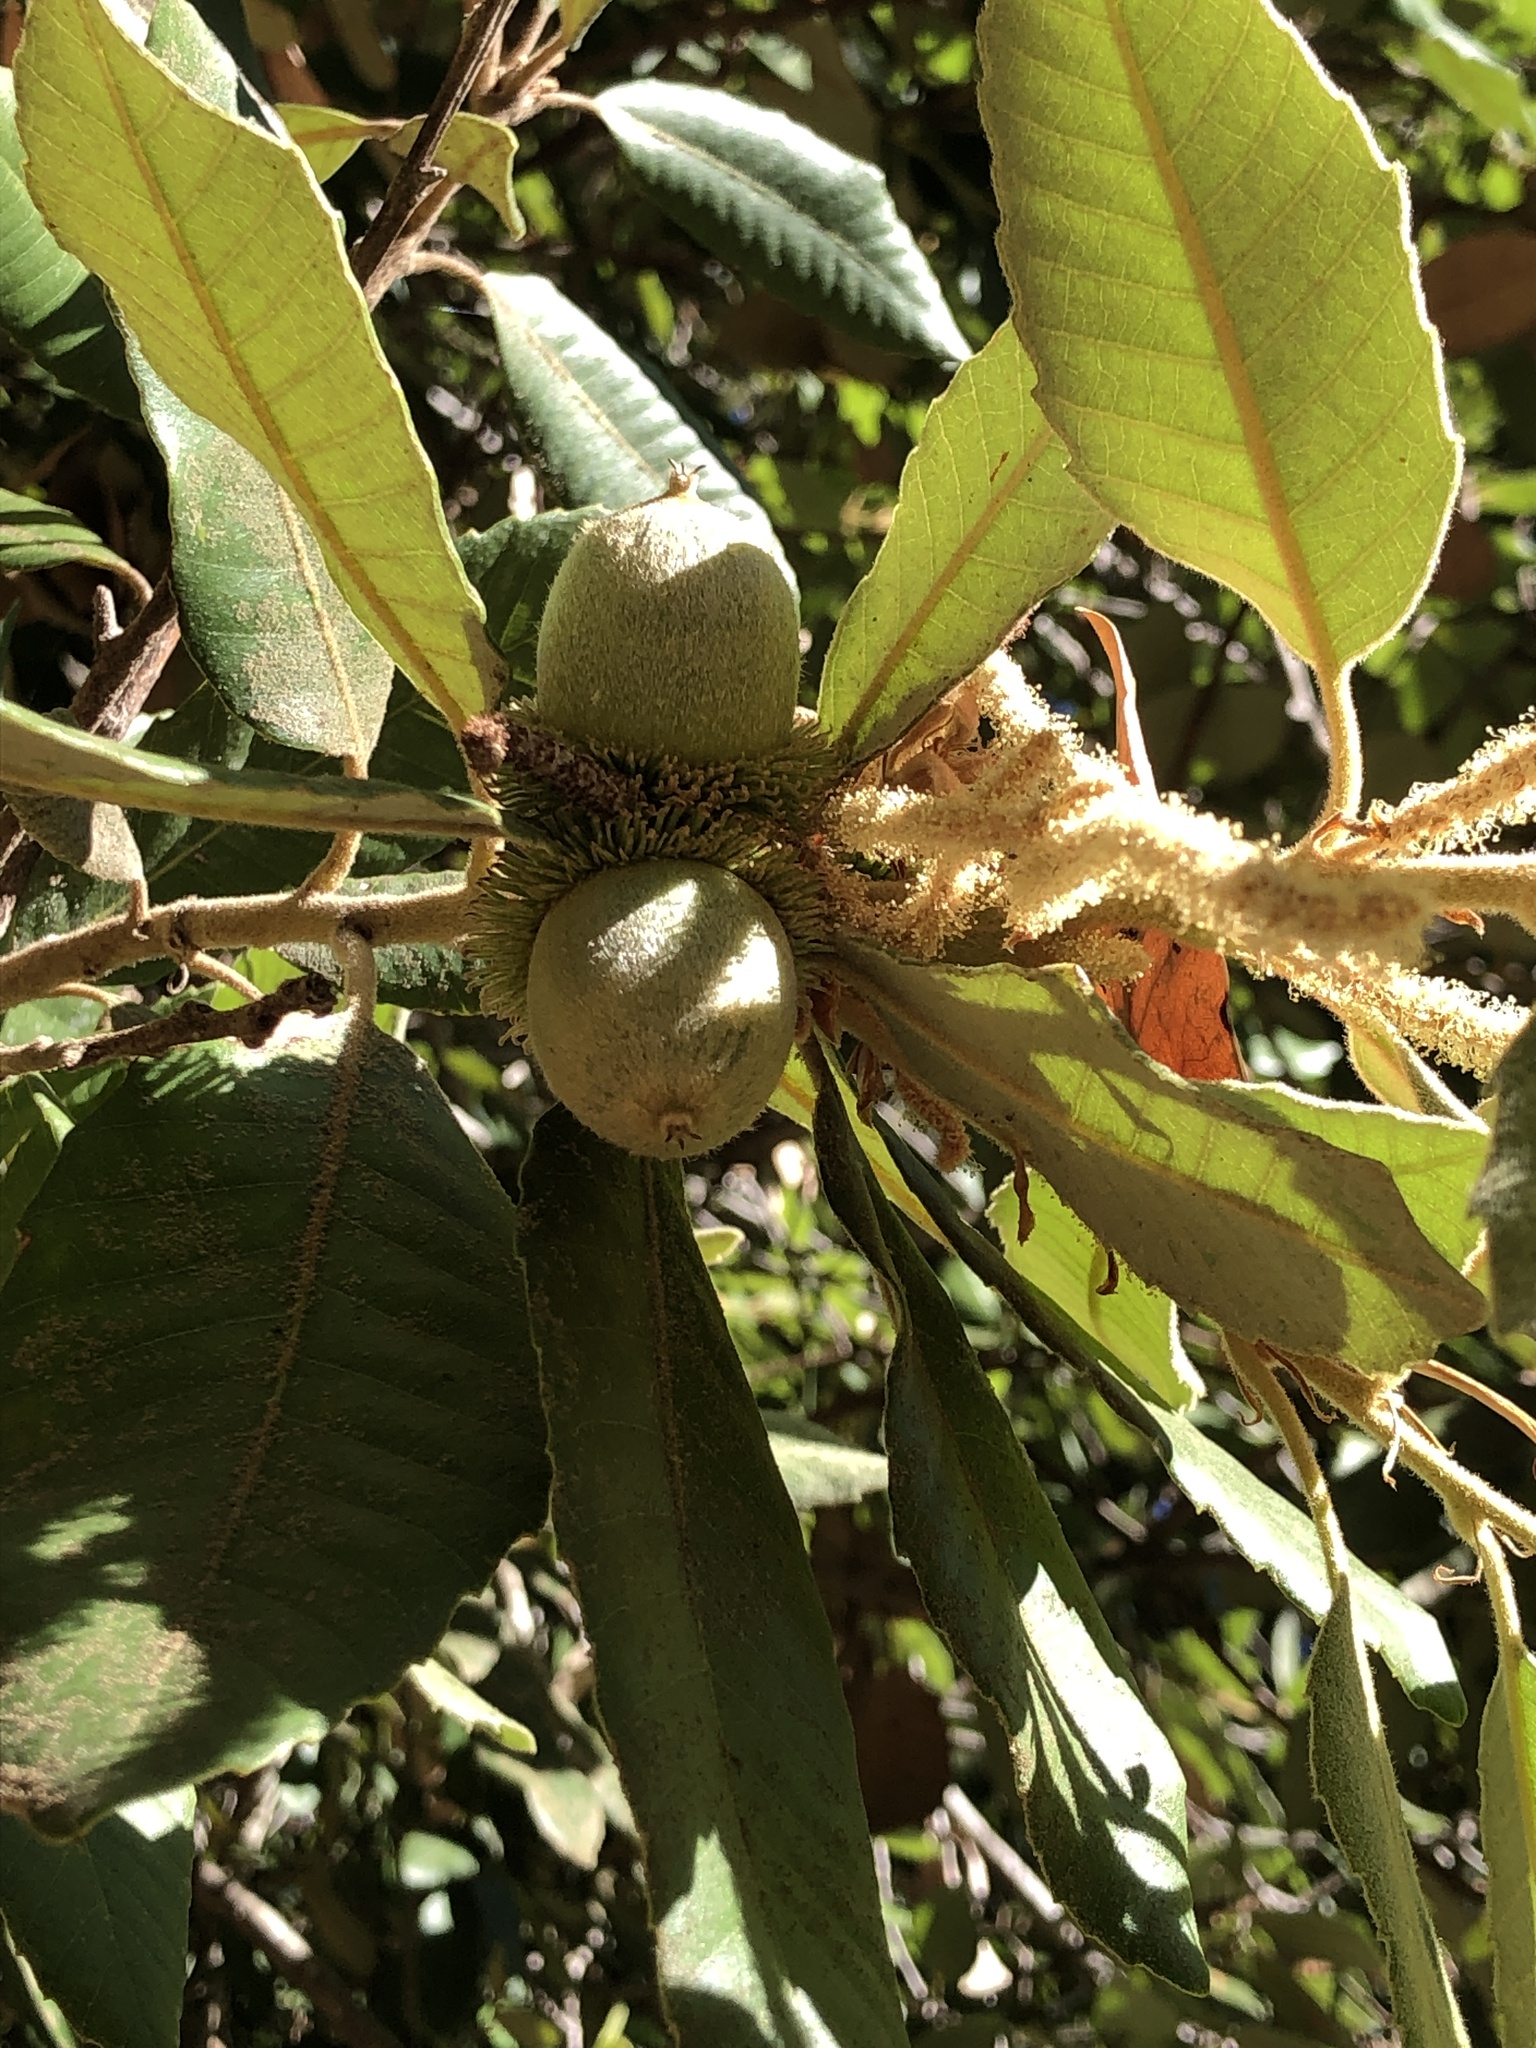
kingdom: Plantae
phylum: Tracheophyta
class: Magnoliopsida
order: Fagales
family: Fagaceae
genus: Notholithocarpus
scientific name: Notholithocarpus densiflorus
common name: Tan bark oak
